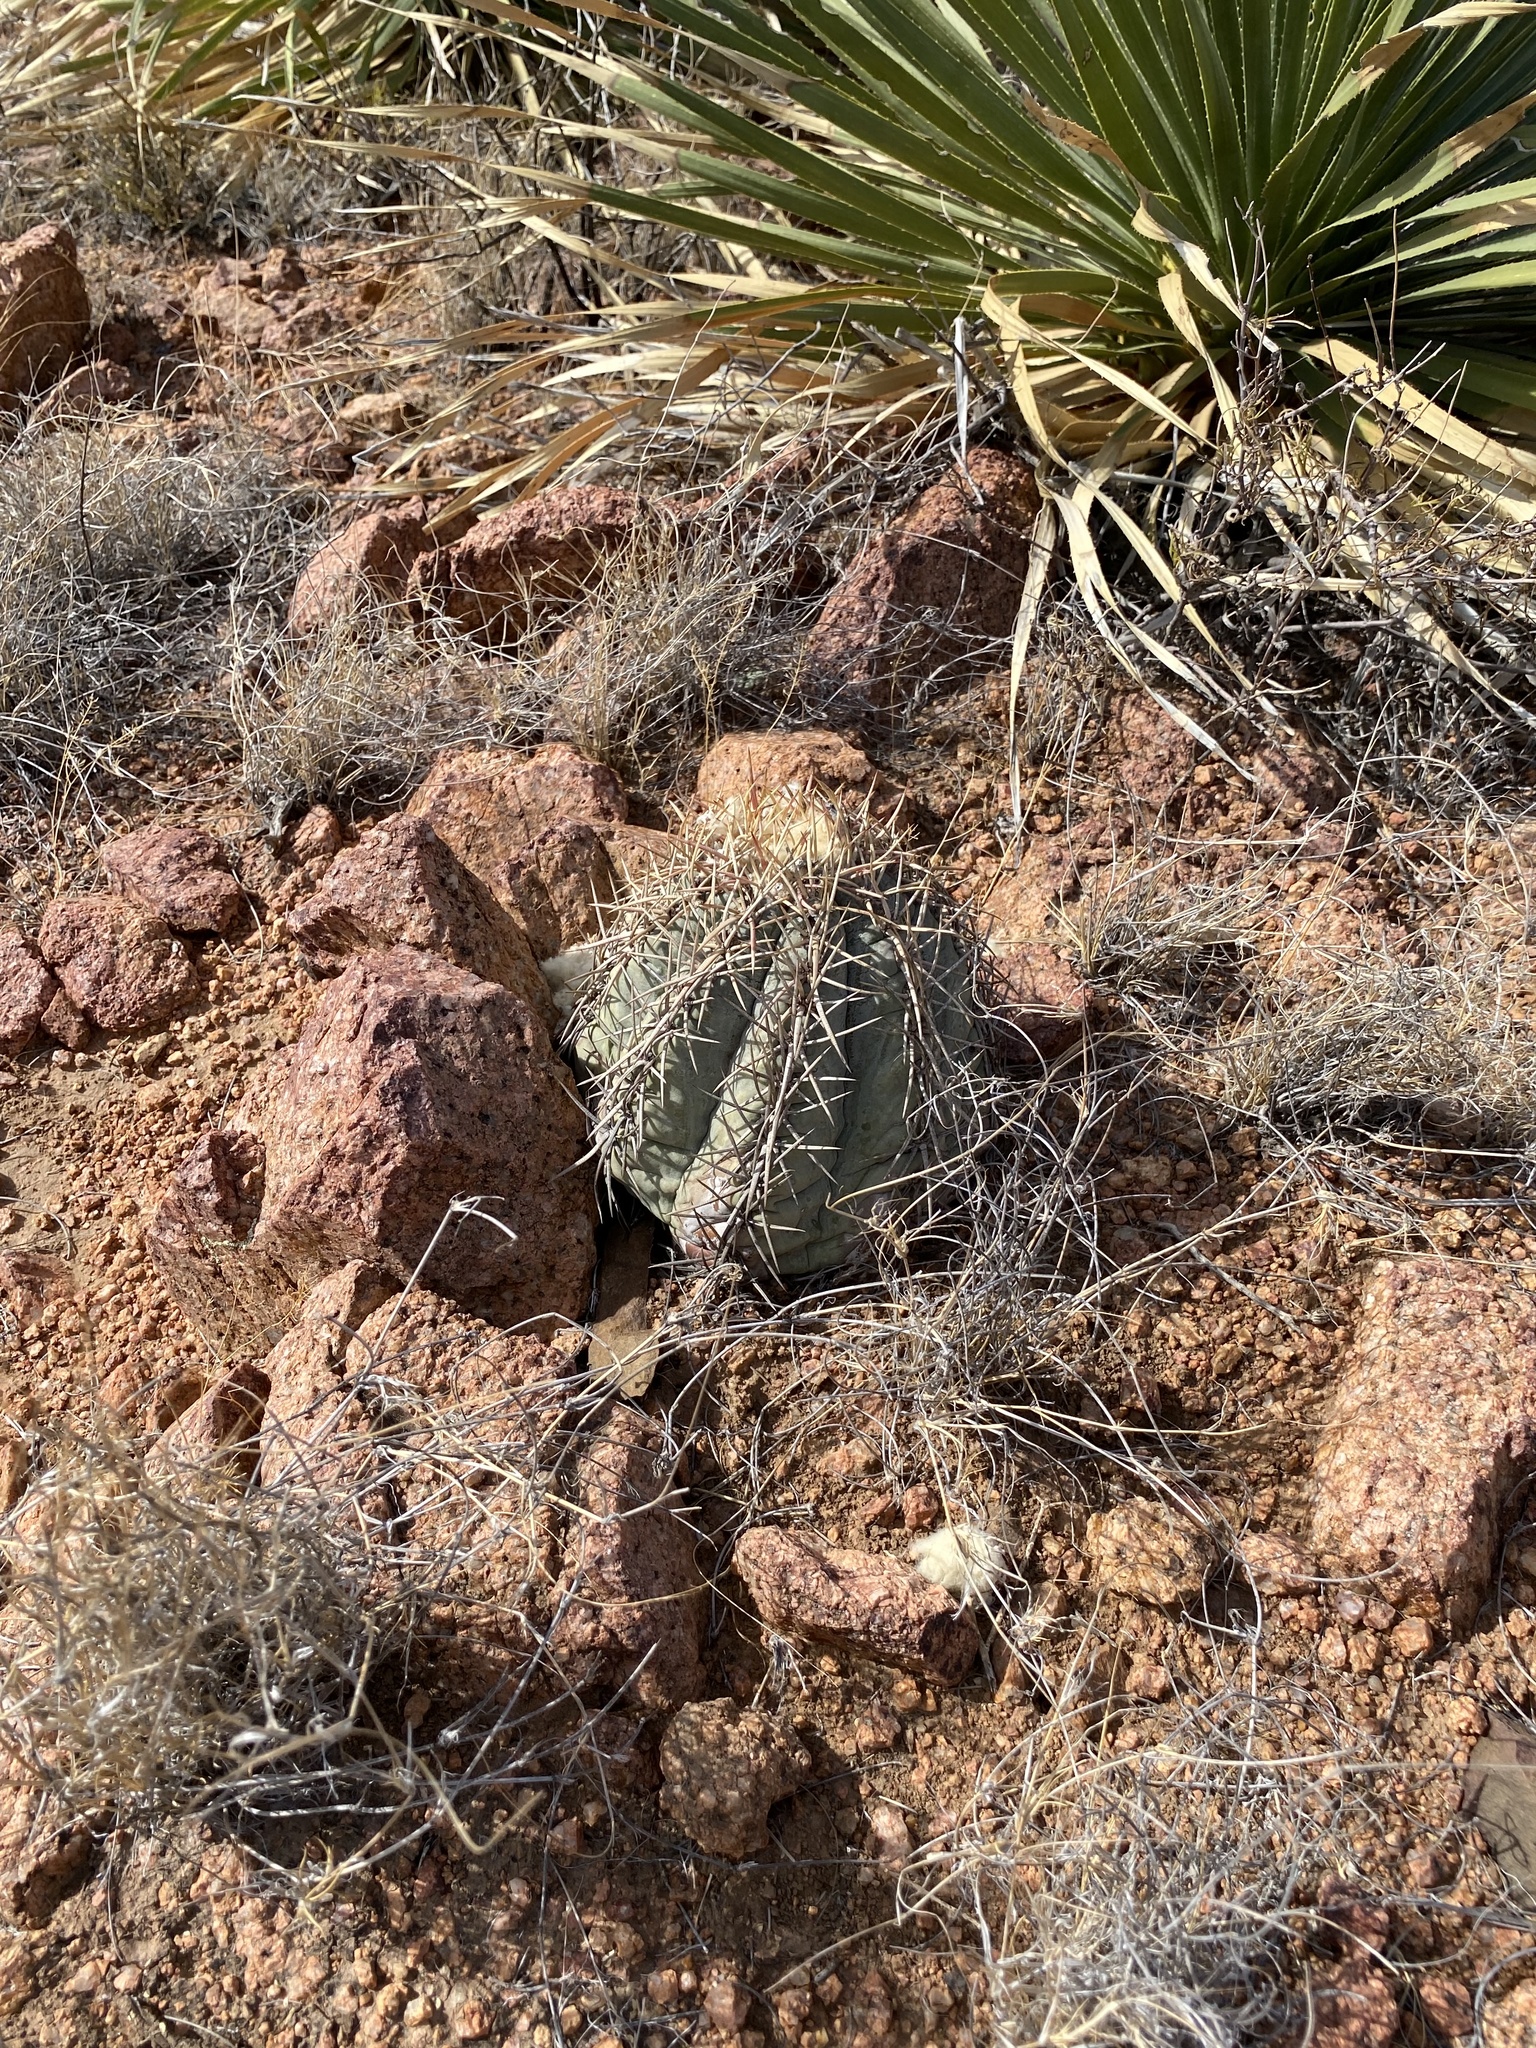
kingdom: Plantae
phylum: Tracheophyta
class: Magnoliopsida
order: Caryophyllales
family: Cactaceae
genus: Echinocactus
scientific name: Echinocactus horizonthalonius
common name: Devilshead
